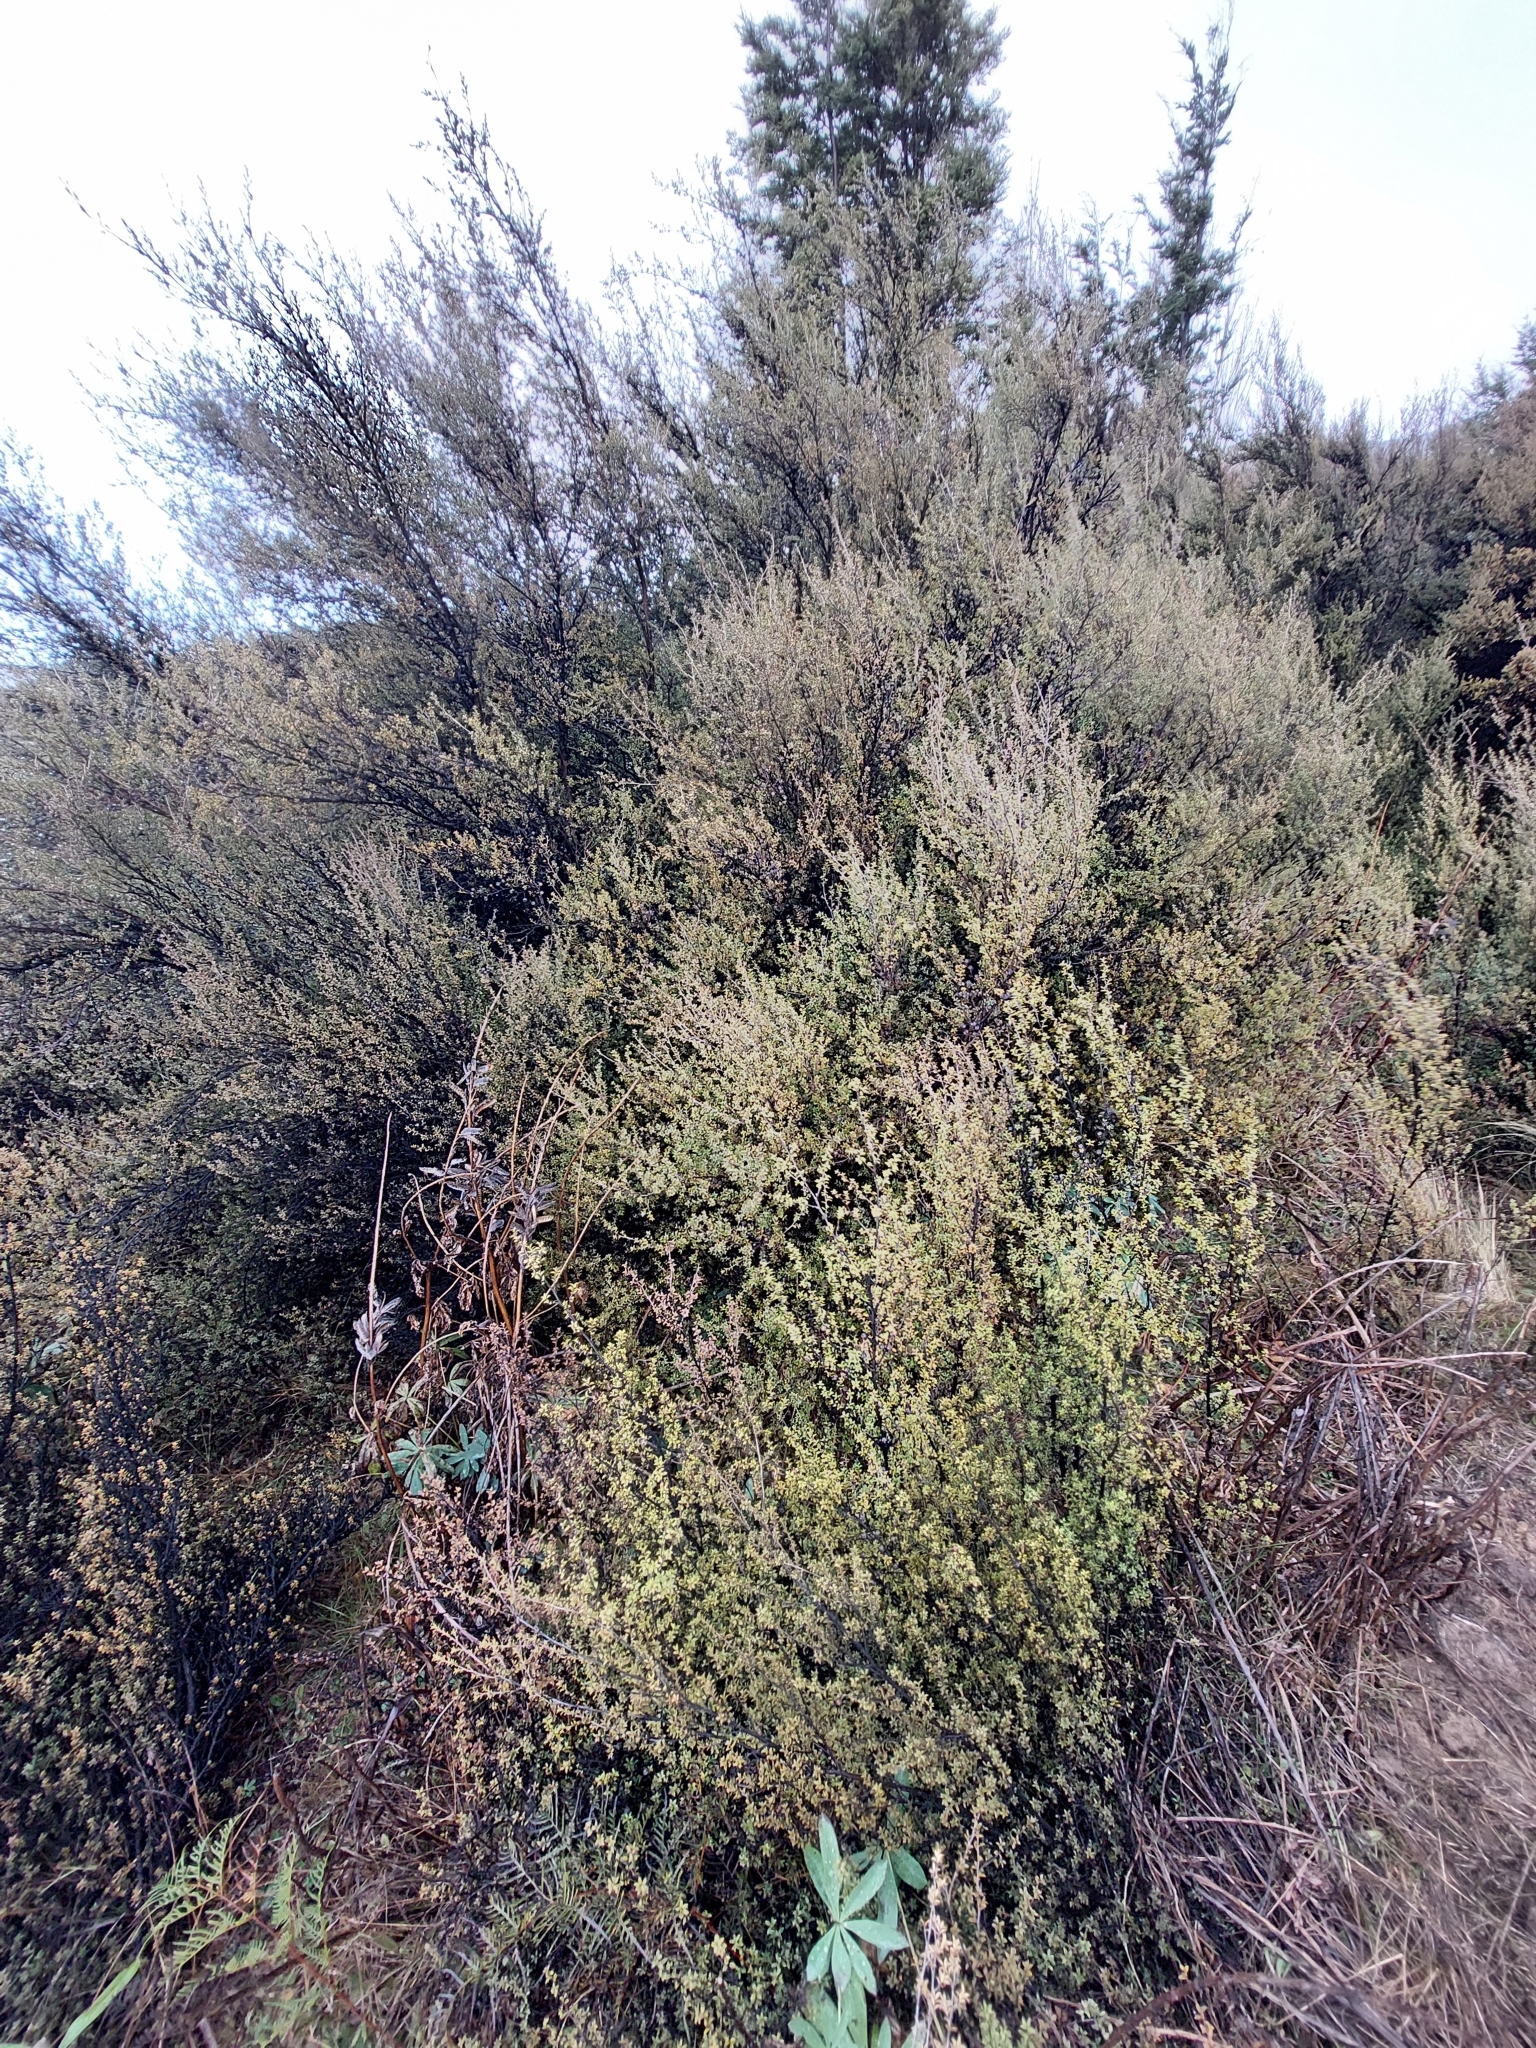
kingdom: Plantae
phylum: Tracheophyta
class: Magnoliopsida
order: Myrtales
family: Myrtaceae
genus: Leptospermum
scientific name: Leptospermum scoparium
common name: Broom tea-tree
